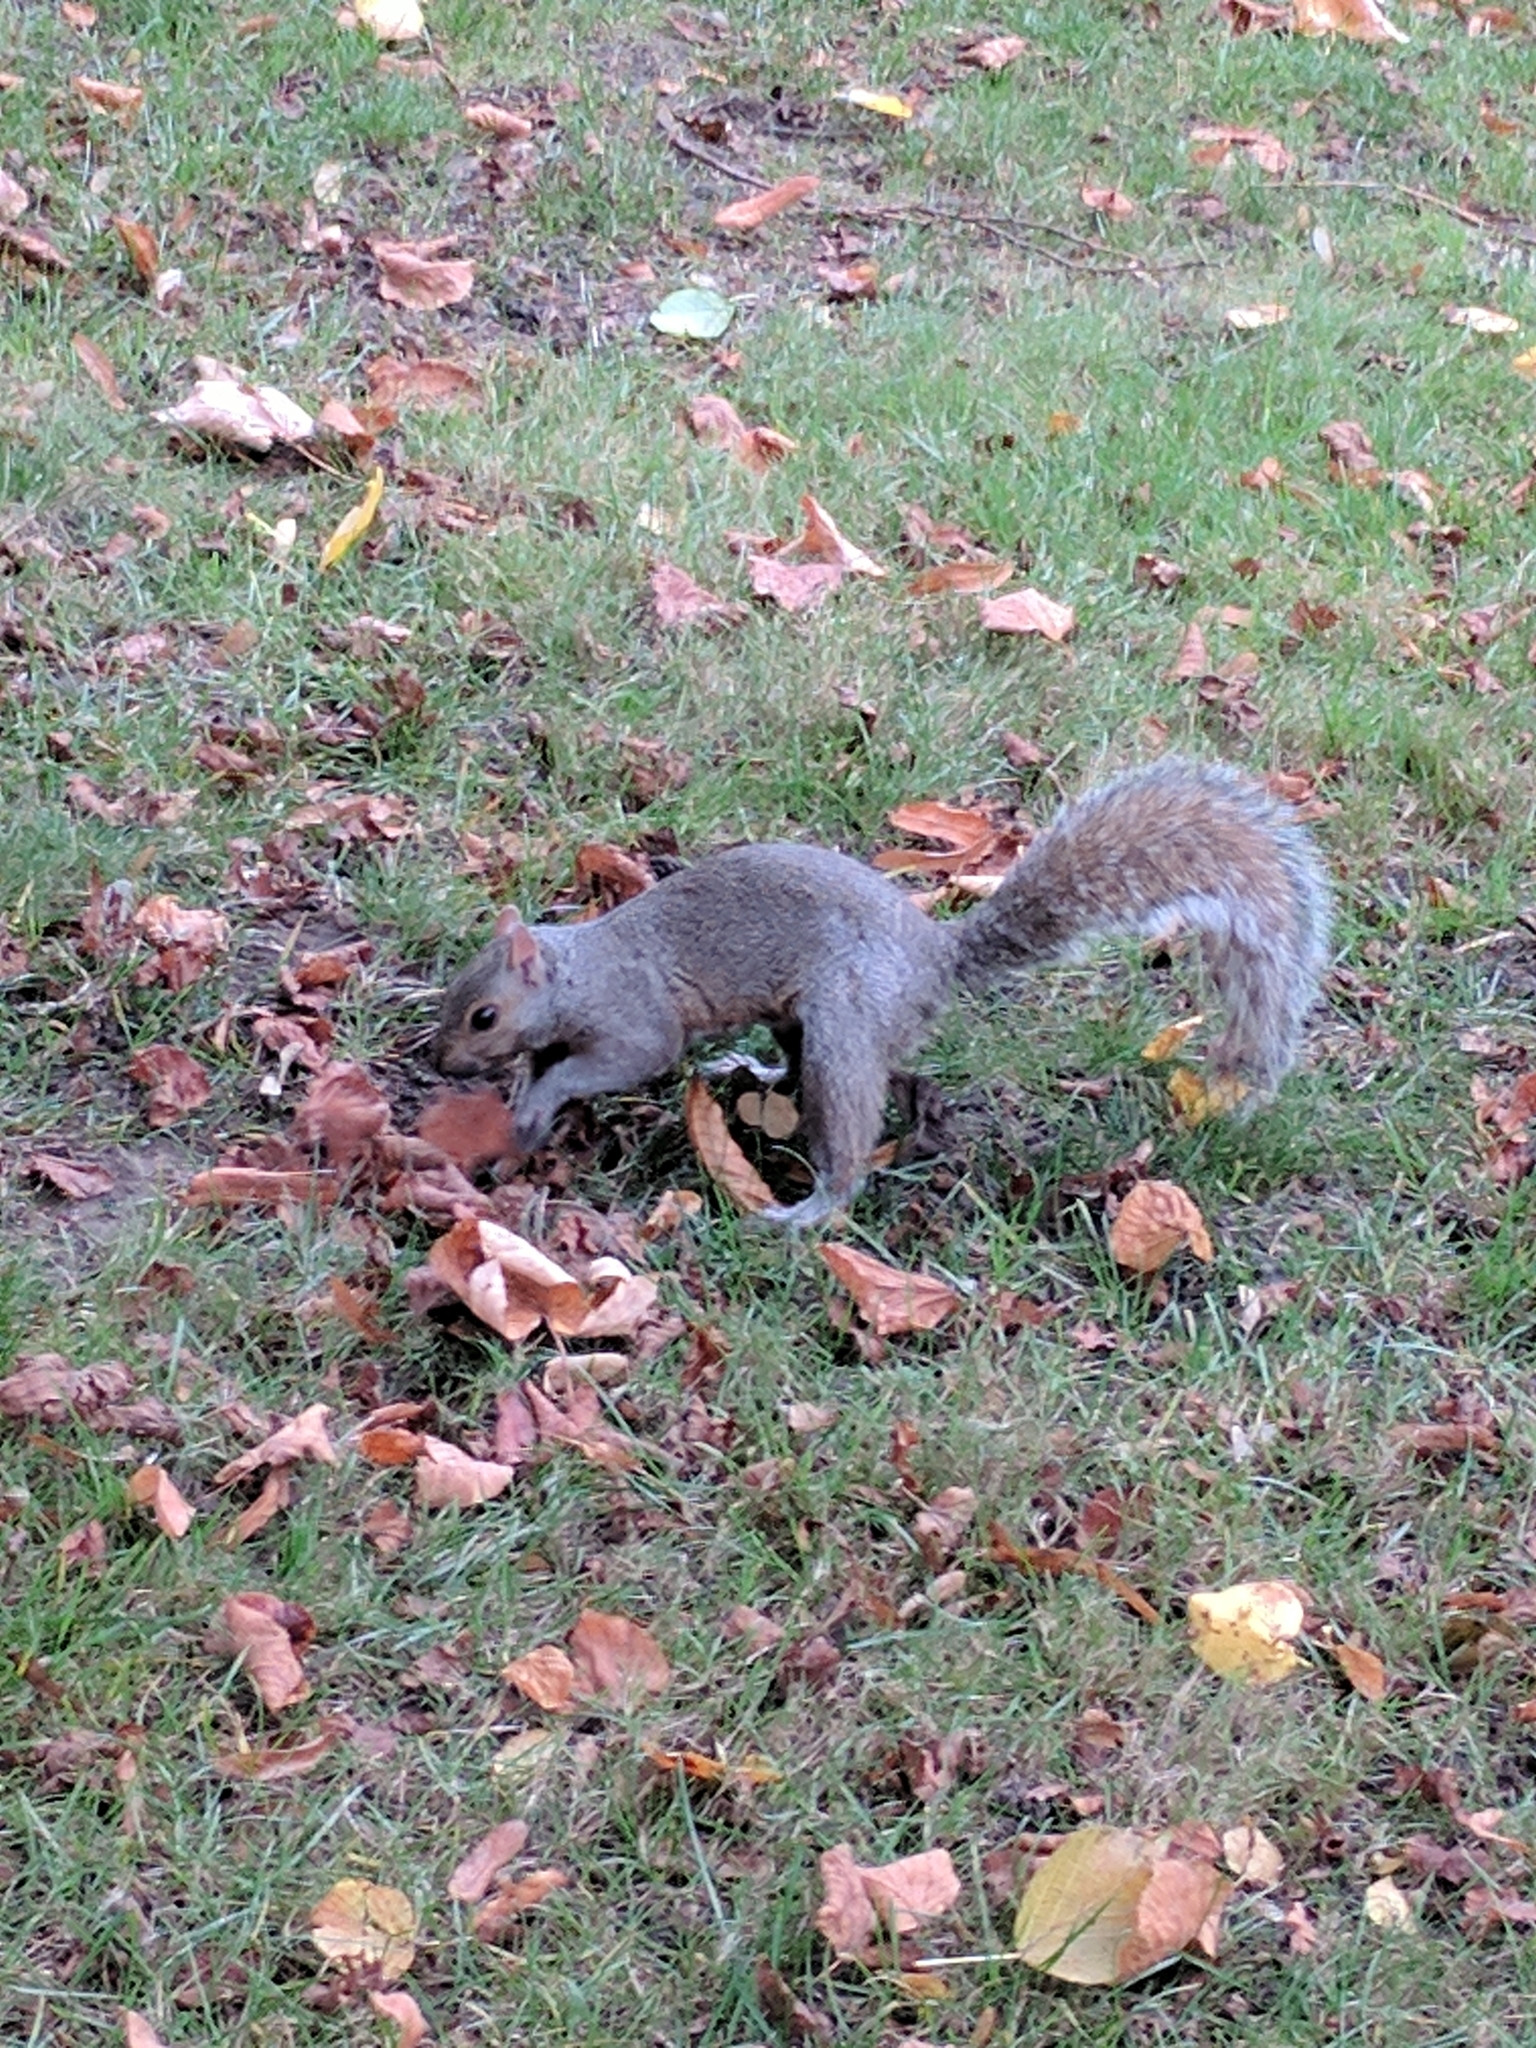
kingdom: Animalia
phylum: Chordata
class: Mammalia
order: Rodentia
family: Sciuridae
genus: Sciurus
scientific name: Sciurus carolinensis
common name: Eastern gray squirrel
